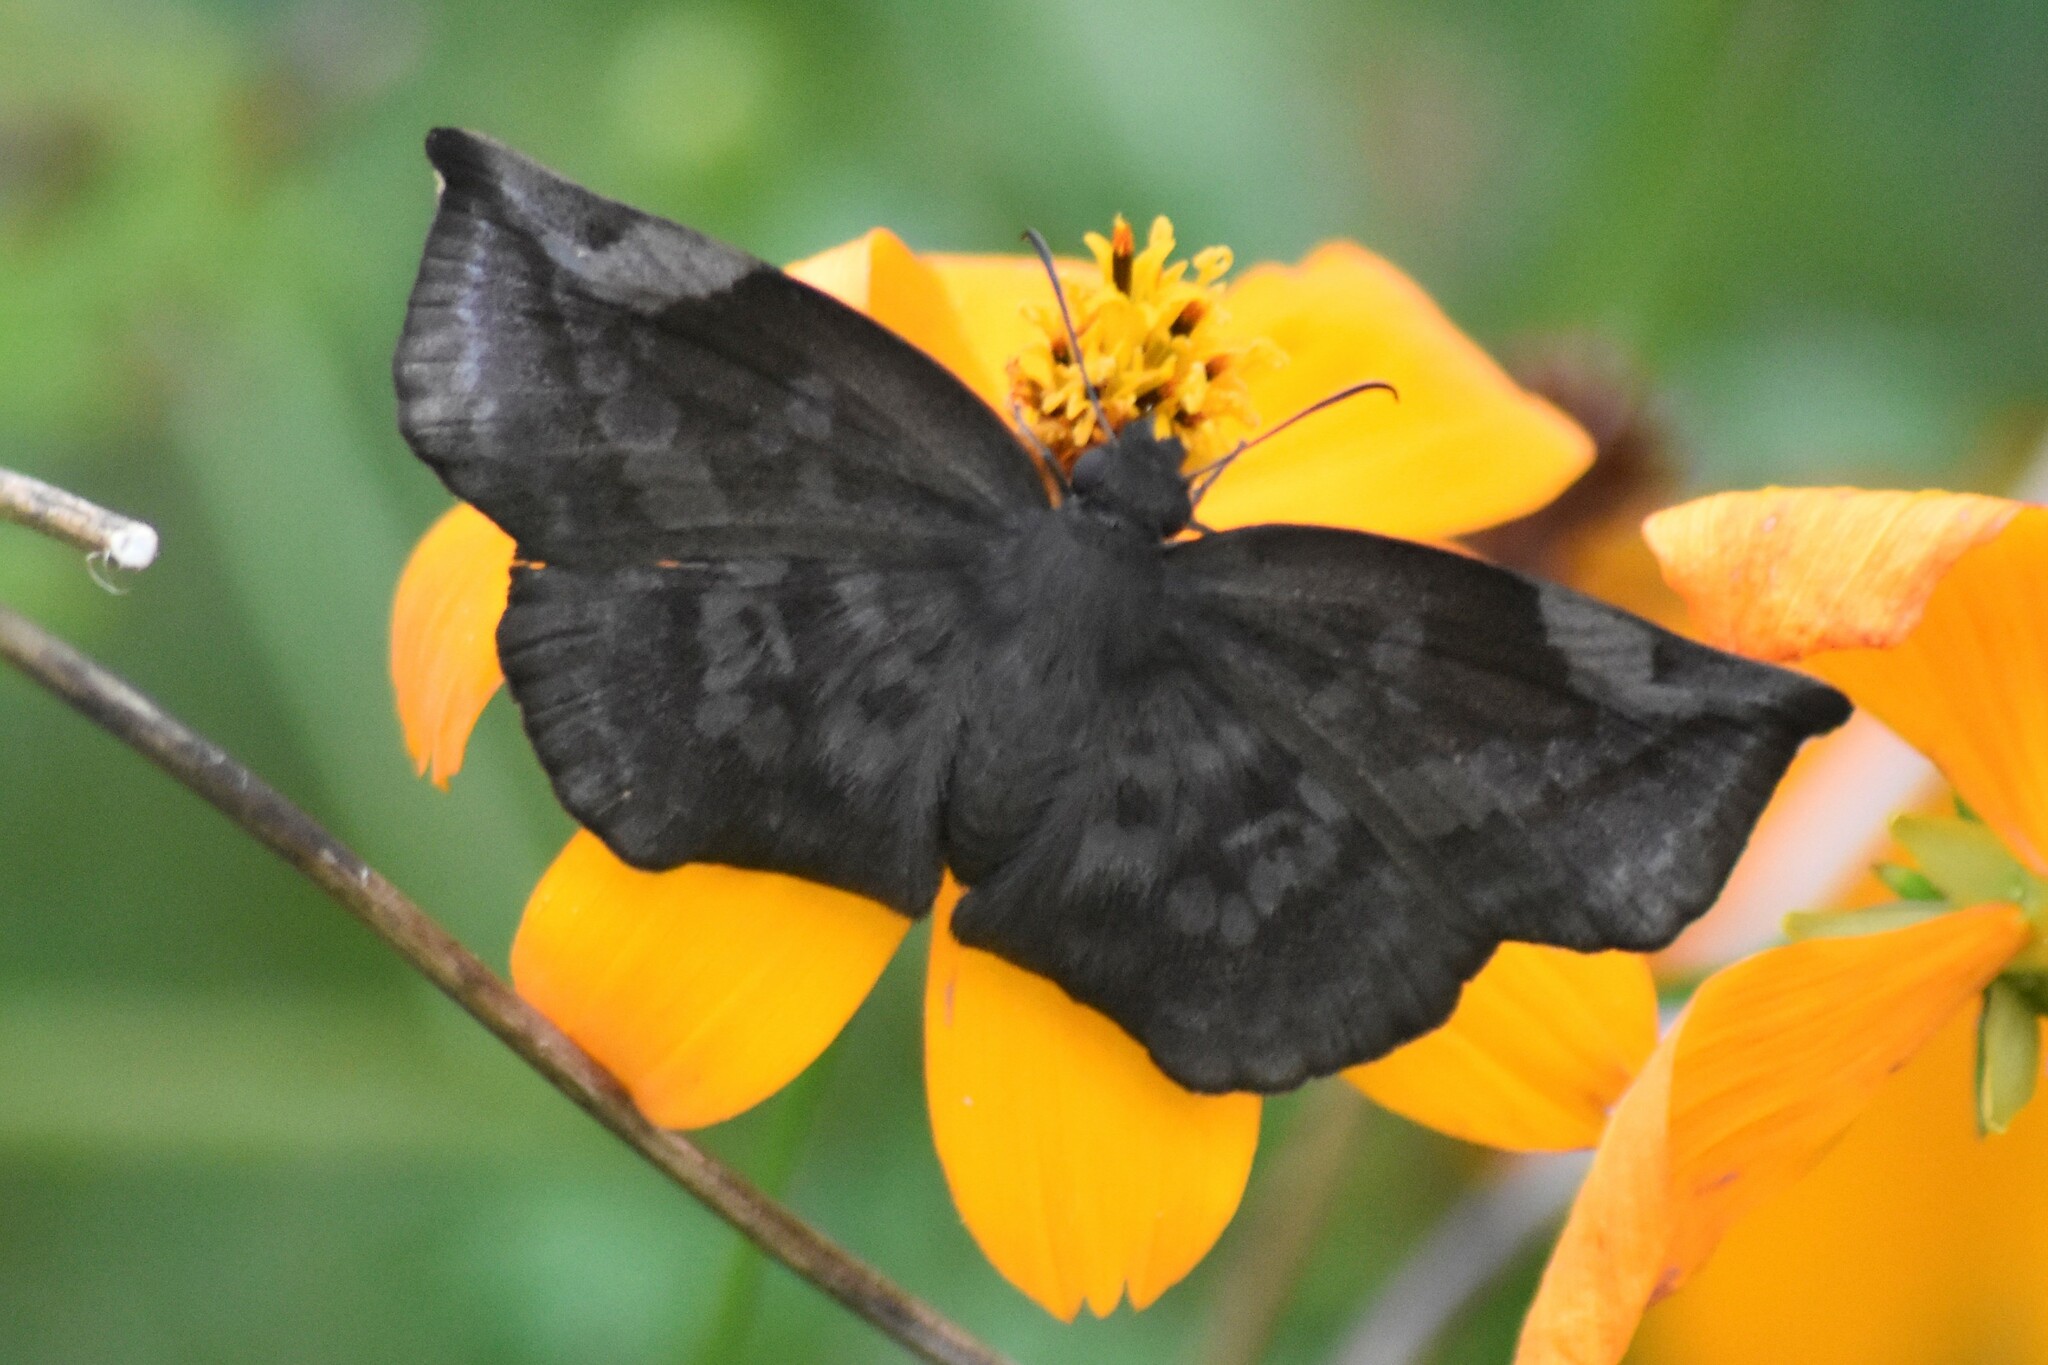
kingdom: Animalia
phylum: Arthropoda
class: Insecta
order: Lepidoptera
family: Hesperiidae
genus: Achlyodes
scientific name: Achlyodes thraso
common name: Sickle-winged skipper
